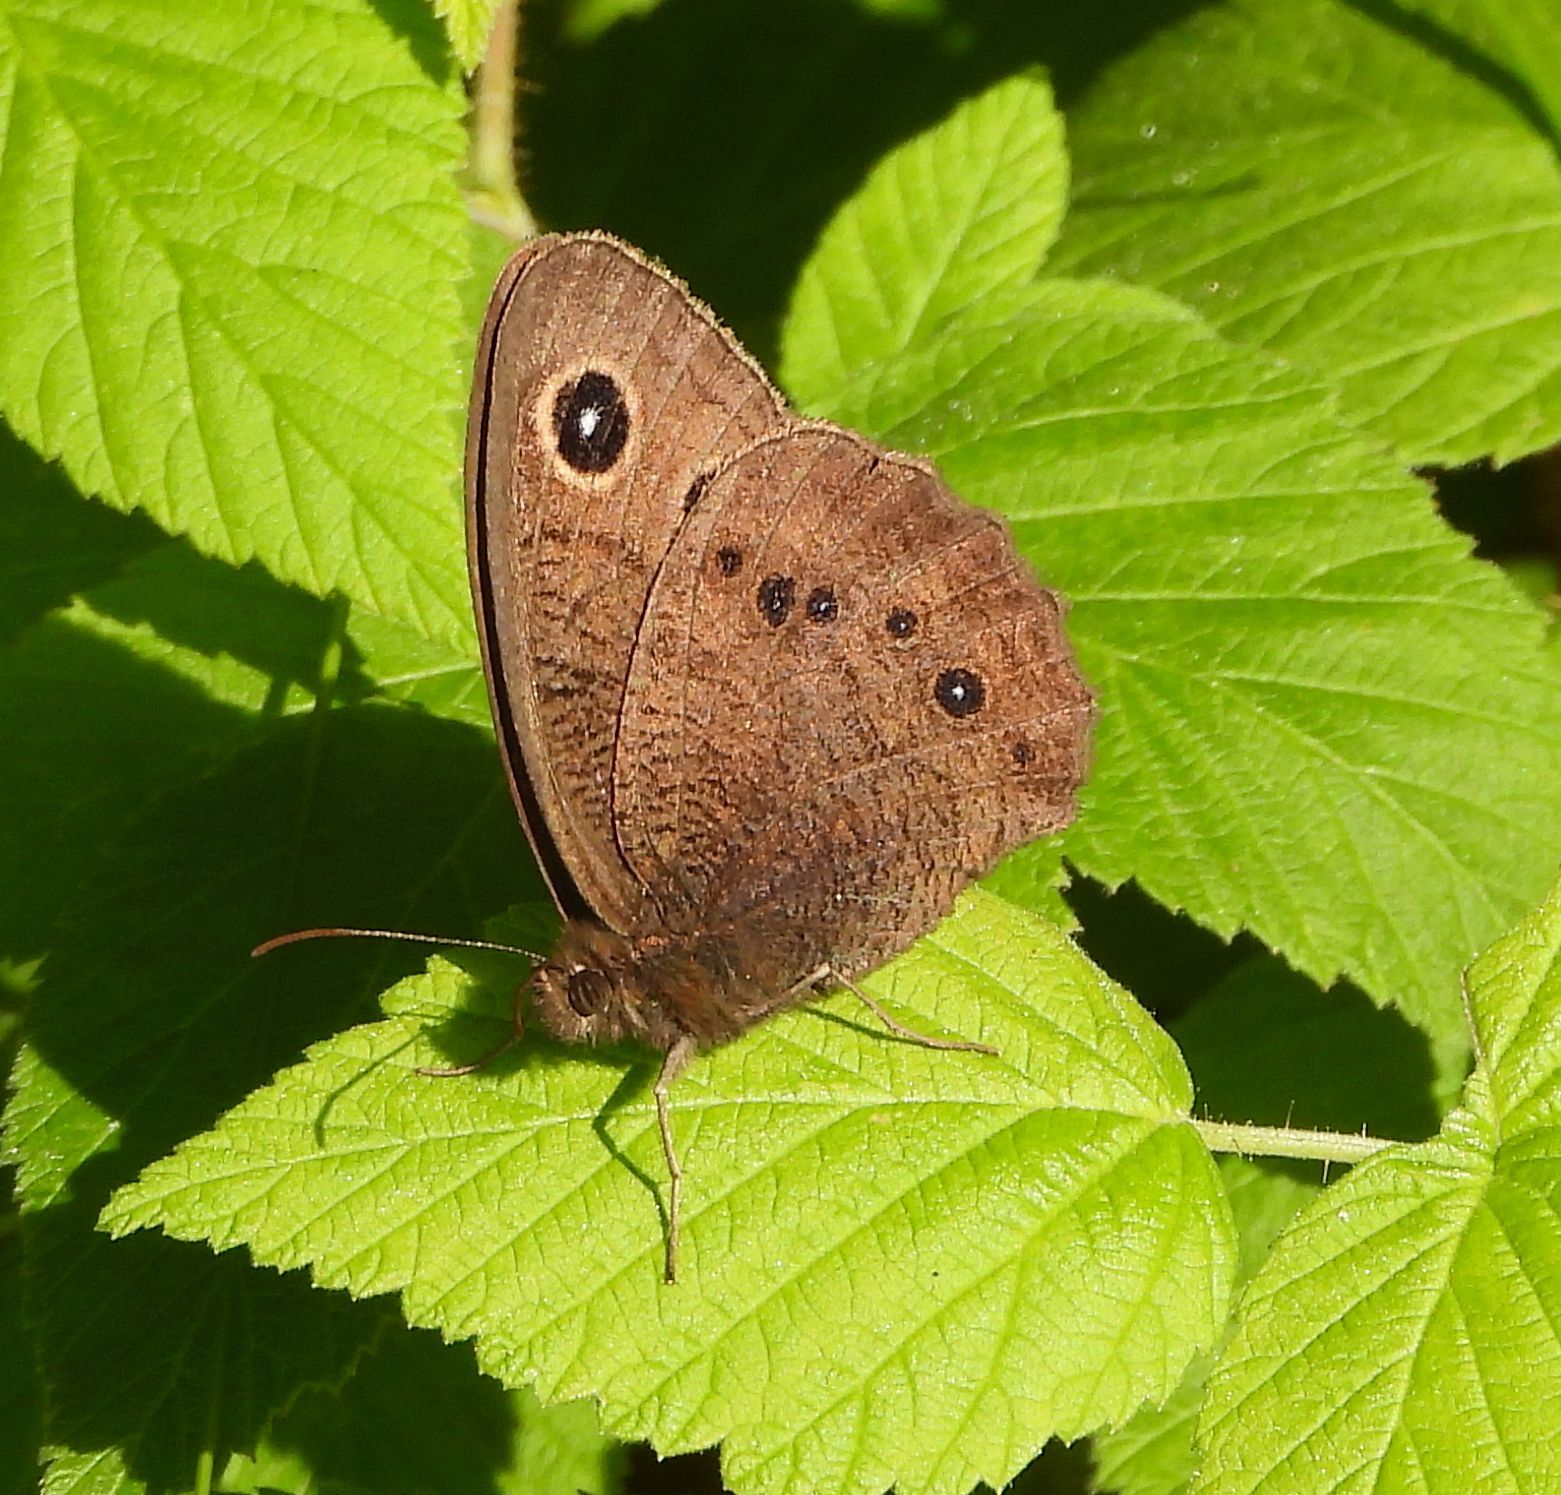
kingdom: Animalia
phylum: Arthropoda
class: Insecta
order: Lepidoptera
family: Nymphalidae
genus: Cercyonis
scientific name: Cercyonis pegala
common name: Common wood-nymph
